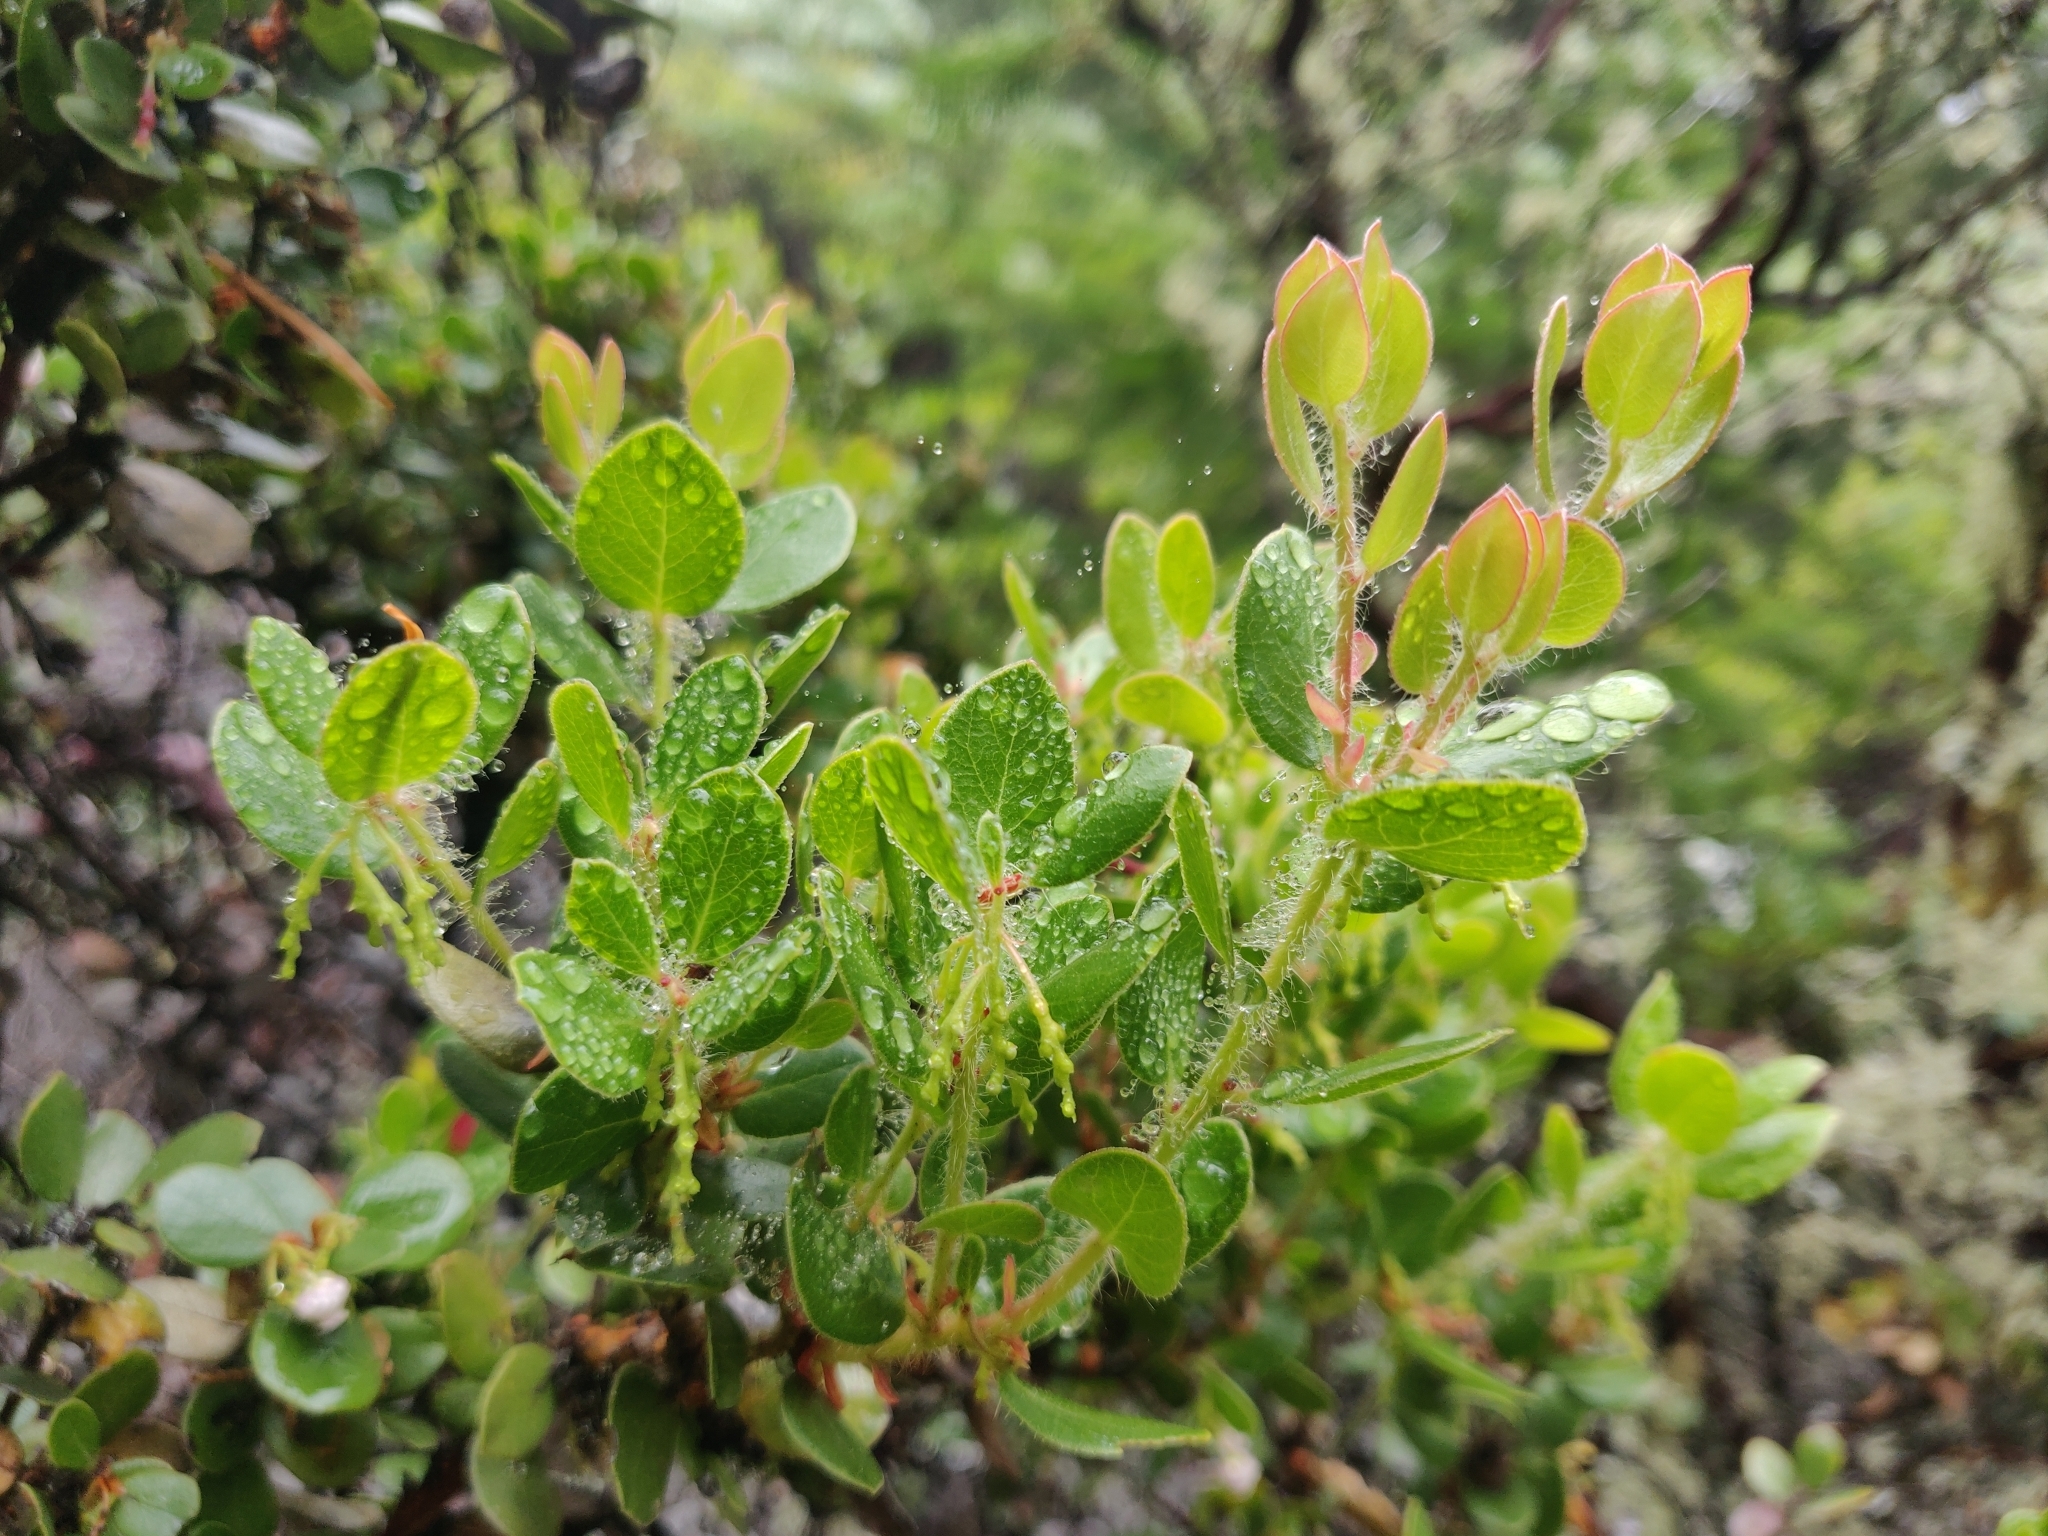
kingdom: Plantae
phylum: Tracheophyta
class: Magnoliopsida
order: Ericales
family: Ericaceae
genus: Arctostaphylos
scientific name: Arctostaphylos nummularia
